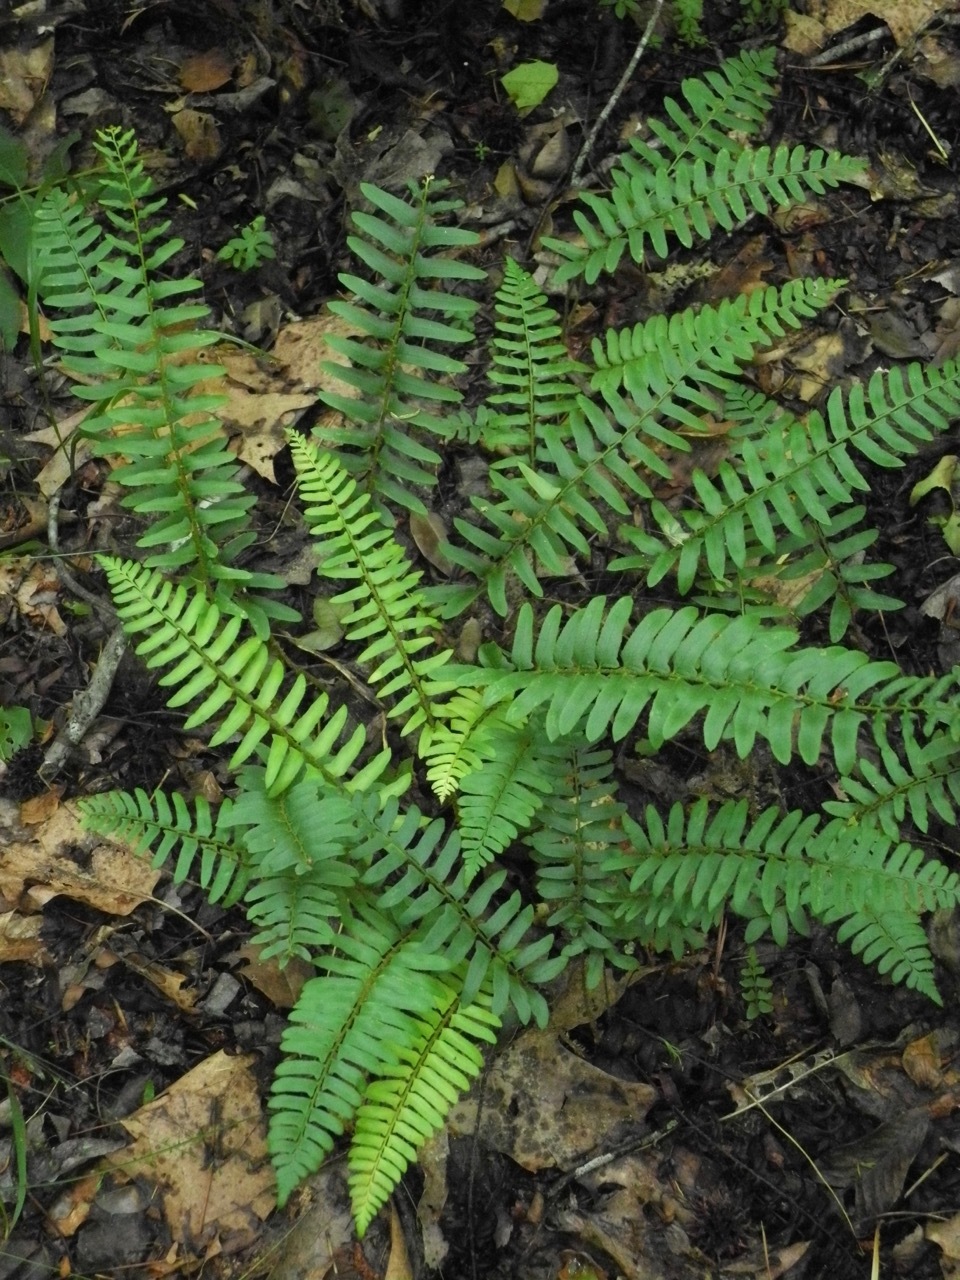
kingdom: Plantae
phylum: Tracheophyta
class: Polypodiopsida
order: Polypodiales
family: Dryopteridaceae
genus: Polystichum
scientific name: Polystichum acrostichoides
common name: Christmas fern
